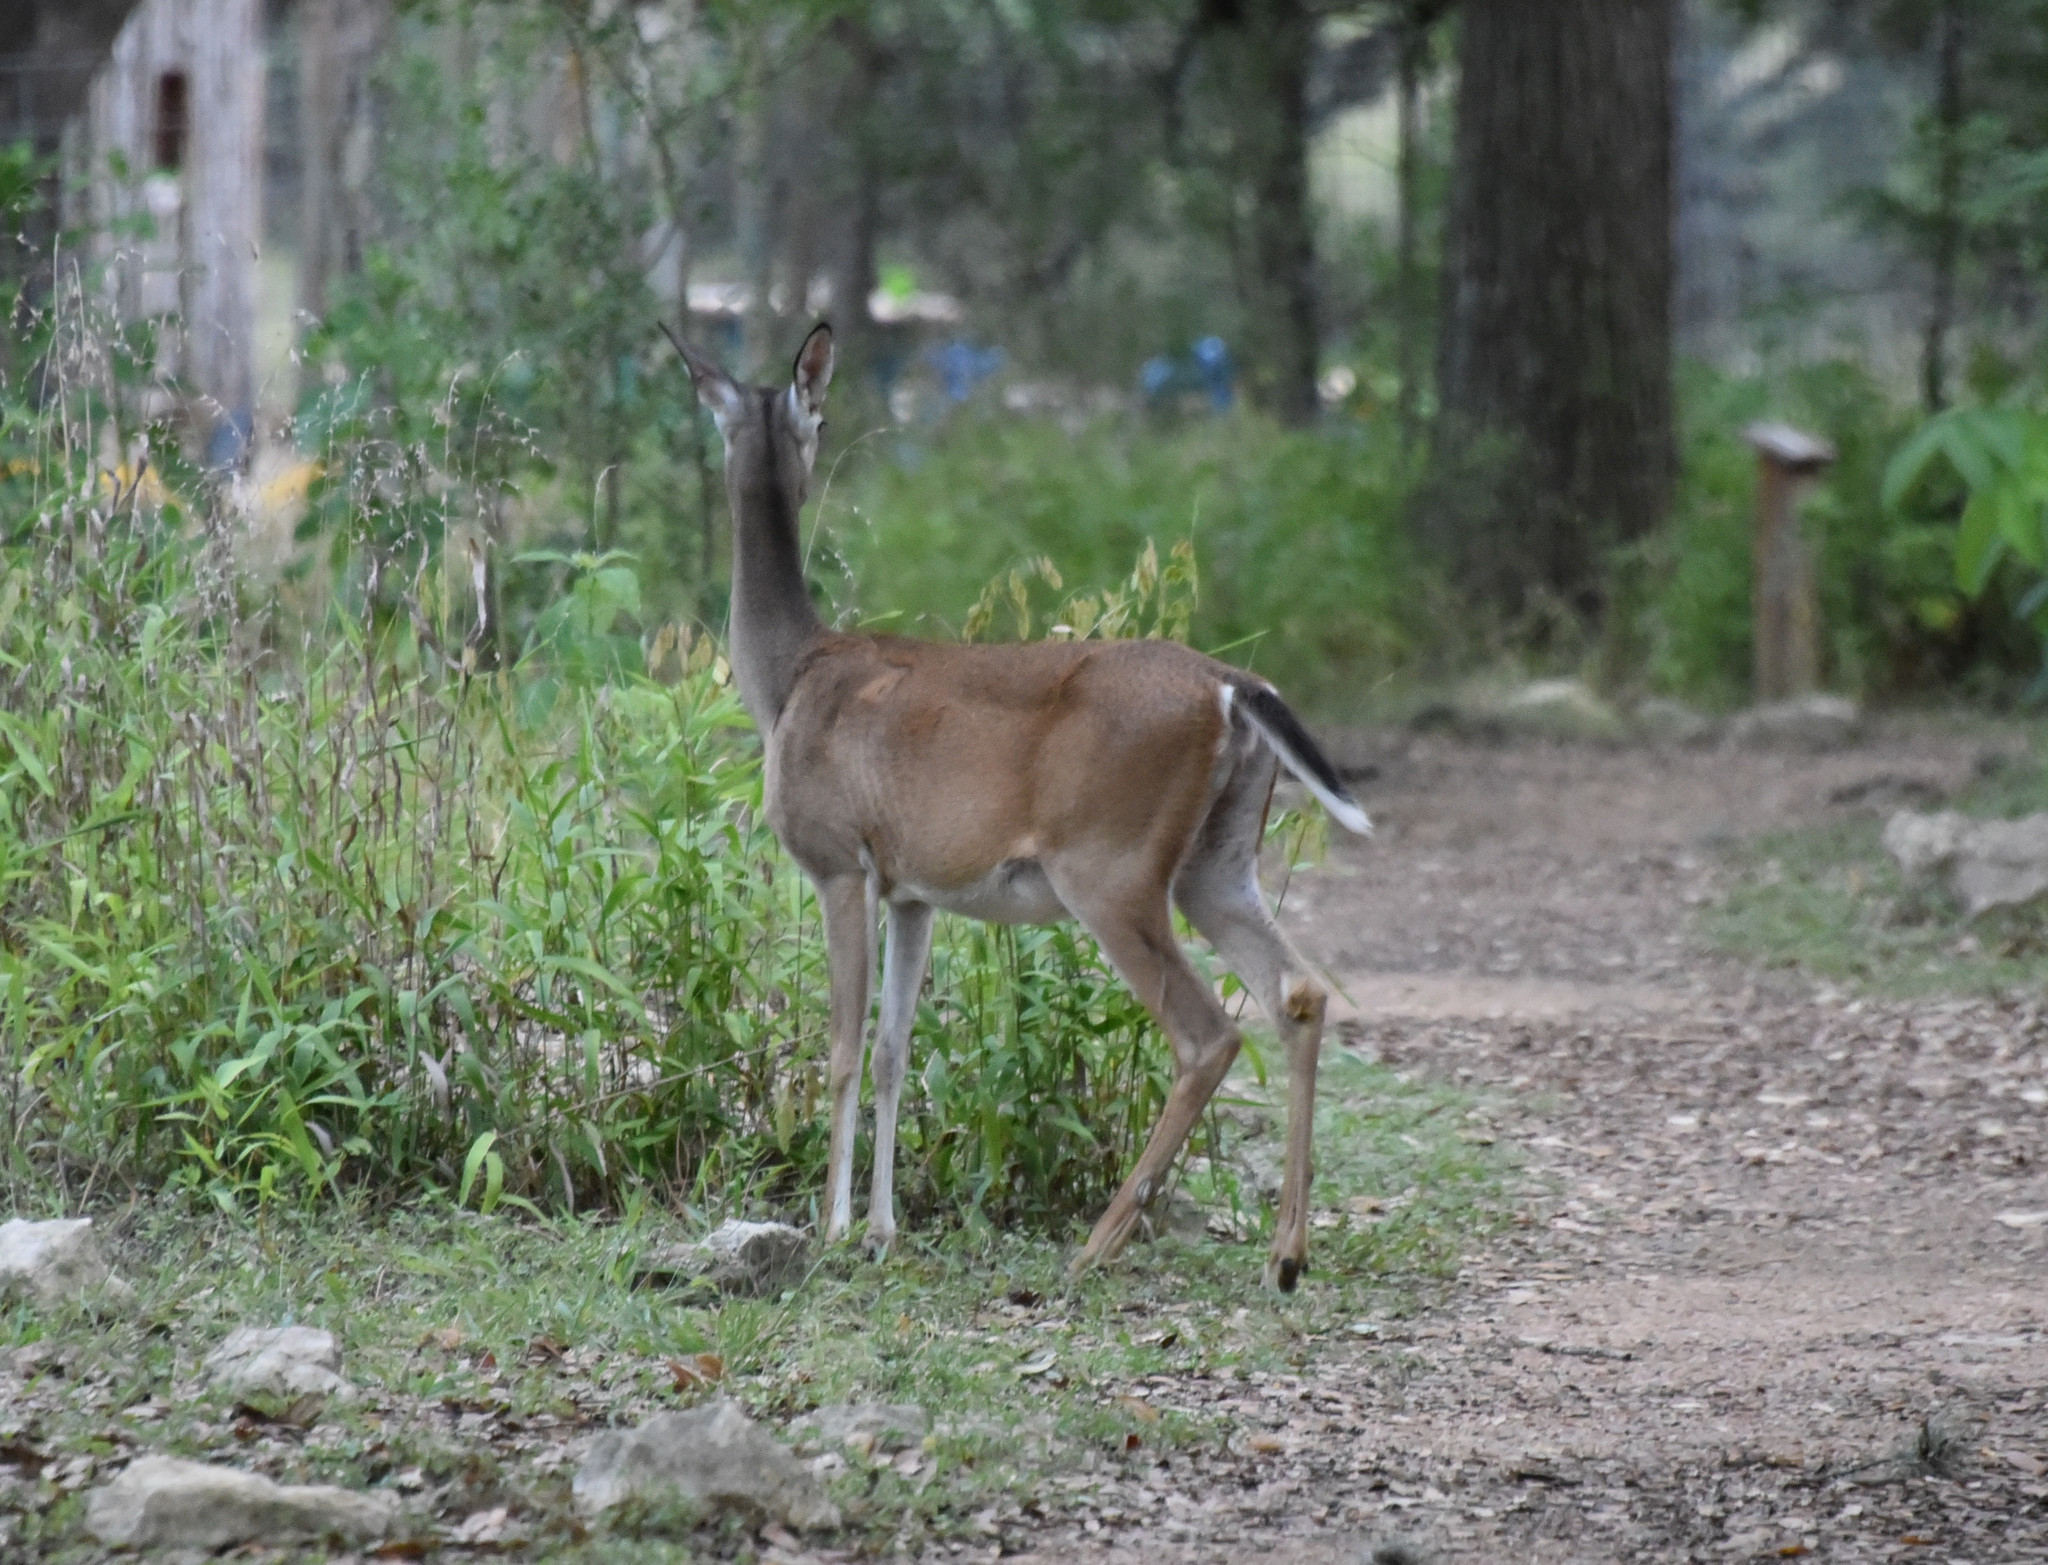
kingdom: Animalia
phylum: Chordata
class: Mammalia
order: Artiodactyla
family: Cervidae
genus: Odocoileus
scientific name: Odocoileus virginianus
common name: White-tailed deer
